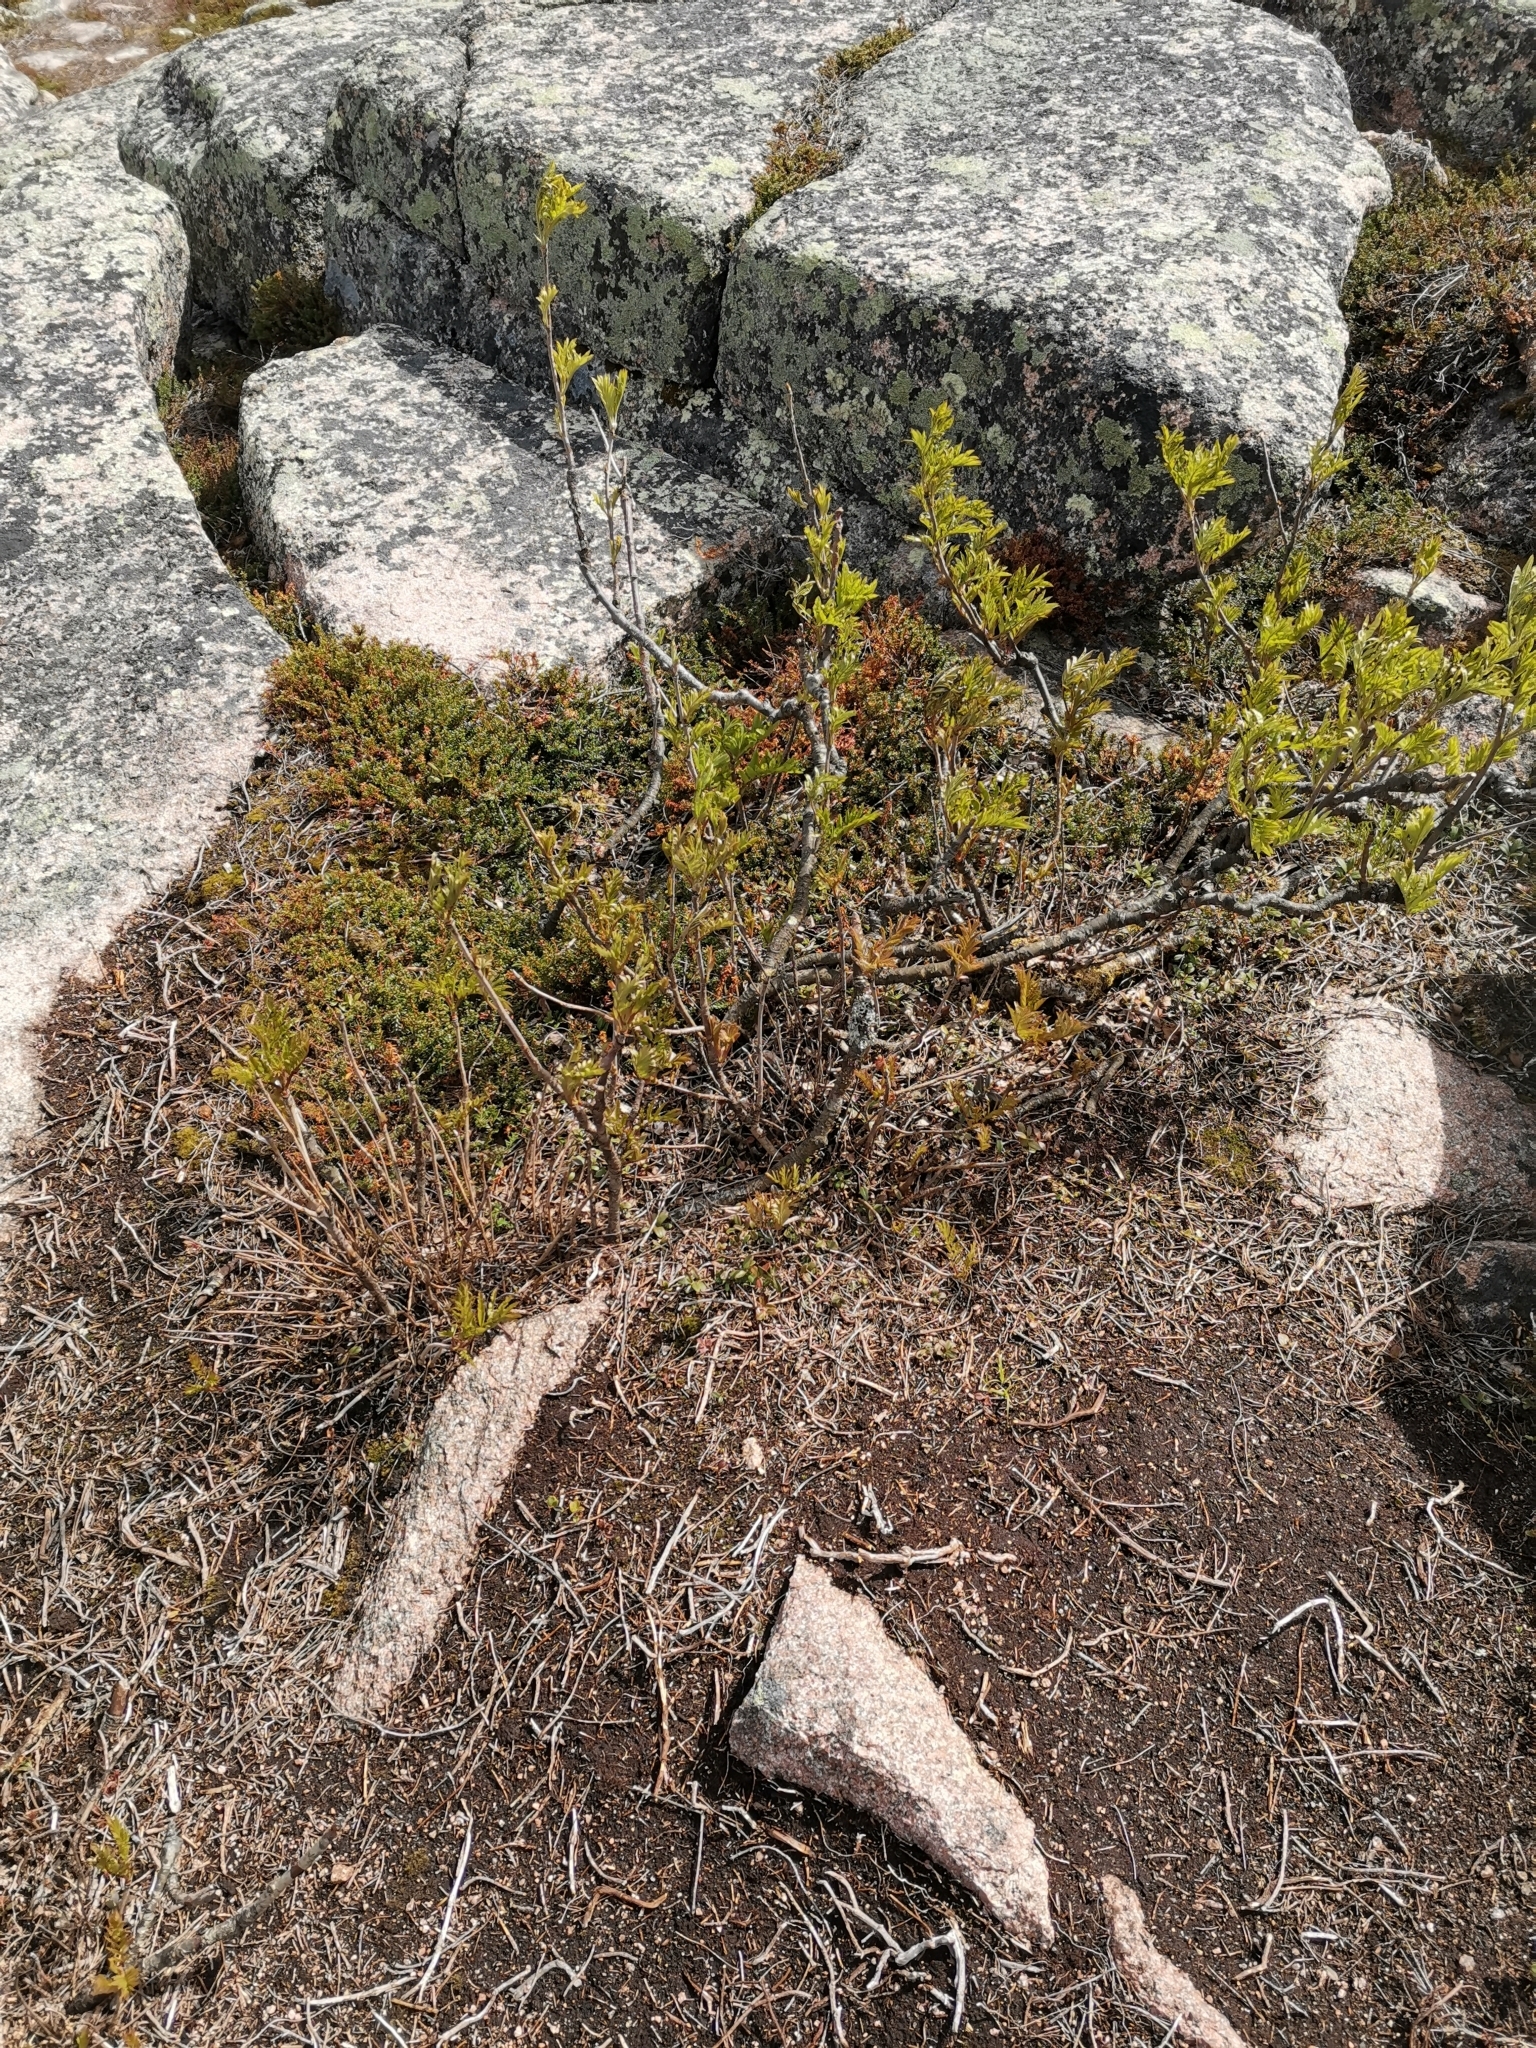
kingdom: Plantae
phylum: Tracheophyta
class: Magnoliopsida
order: Rosales
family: Rosaceae
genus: Sorbus
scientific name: Sorbus aucuparia
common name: Rowan
